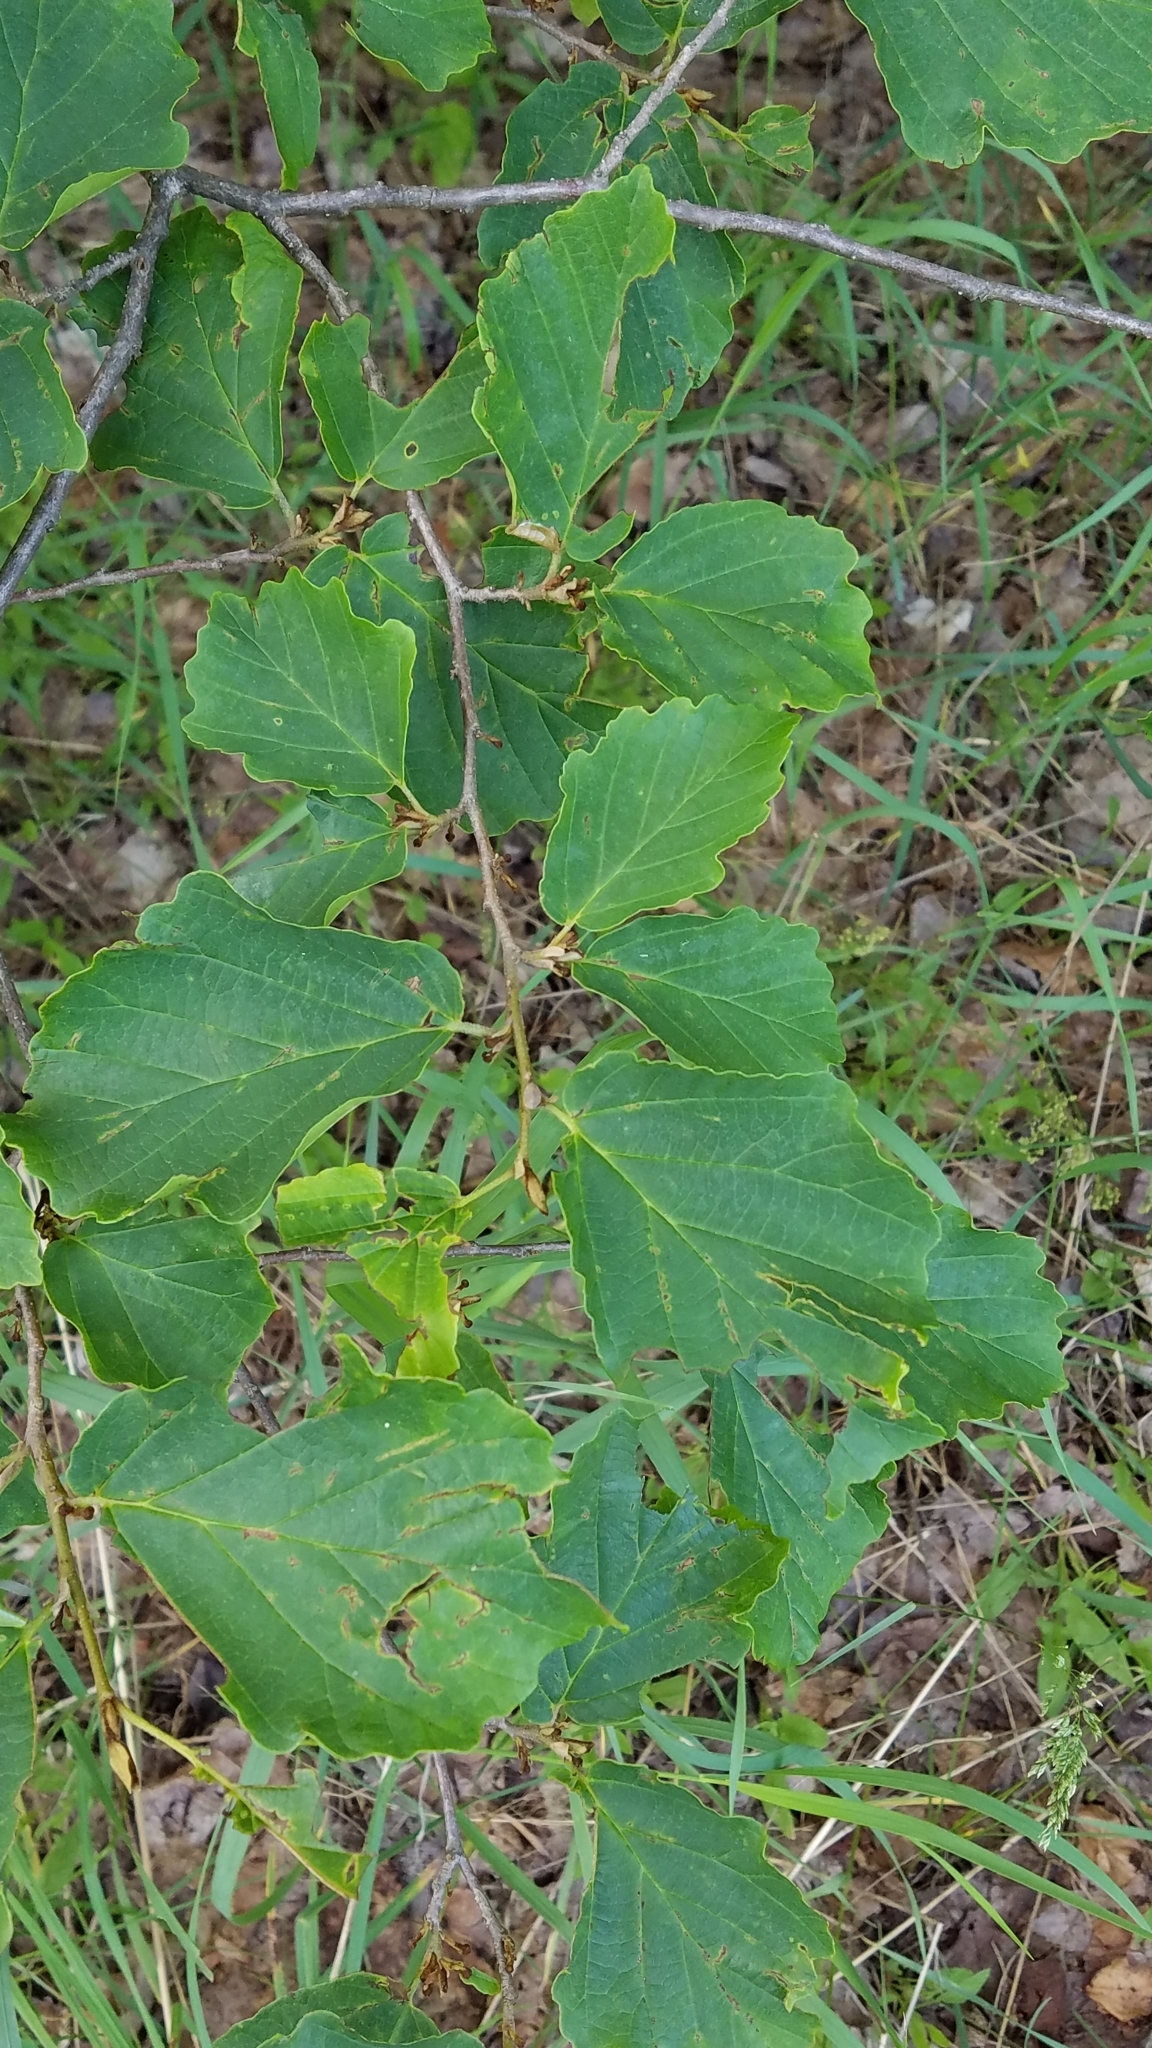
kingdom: Plantae
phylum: Tracheophyta
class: Magnoliopsida
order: Saxifragales
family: Hamamelidaceae
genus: Hamamelis
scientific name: Hamamelis virginiana
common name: Witch-hazel
